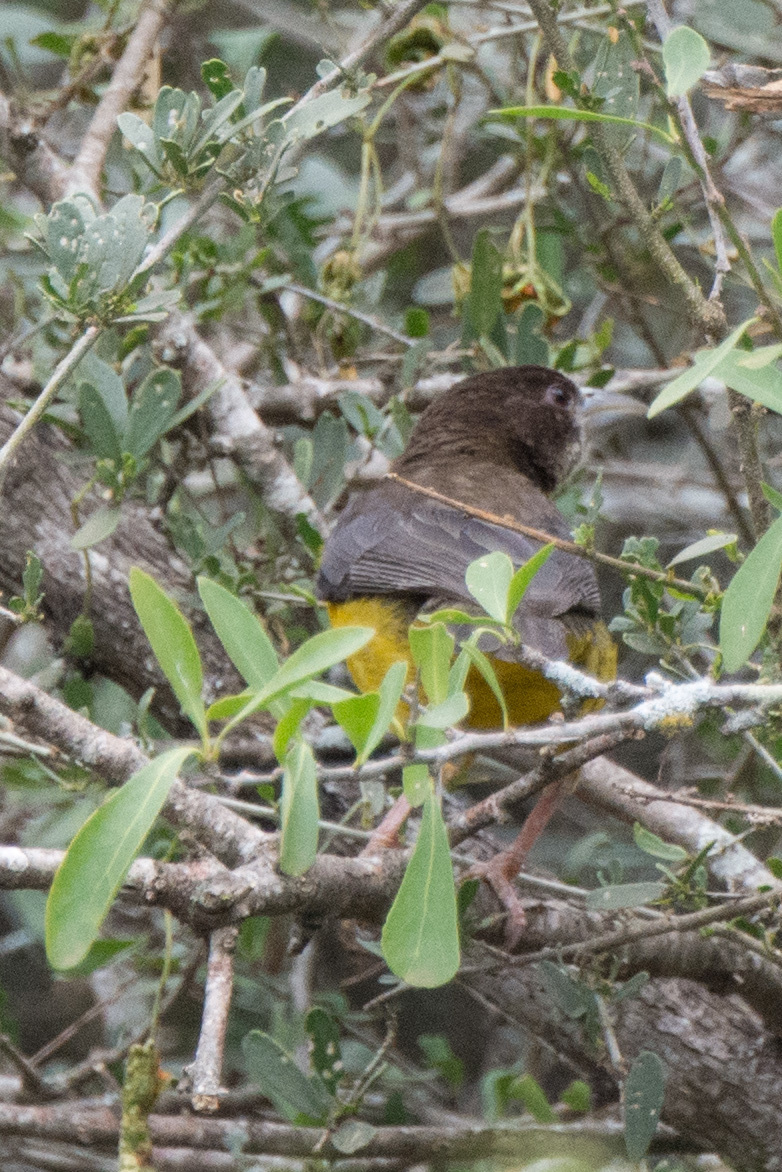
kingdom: Animalia
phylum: Chordata
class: Aves
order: Passeriformes
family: Ploceidae
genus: Ploceus
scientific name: Ploceus bicolor
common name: Dark-backed weaver
